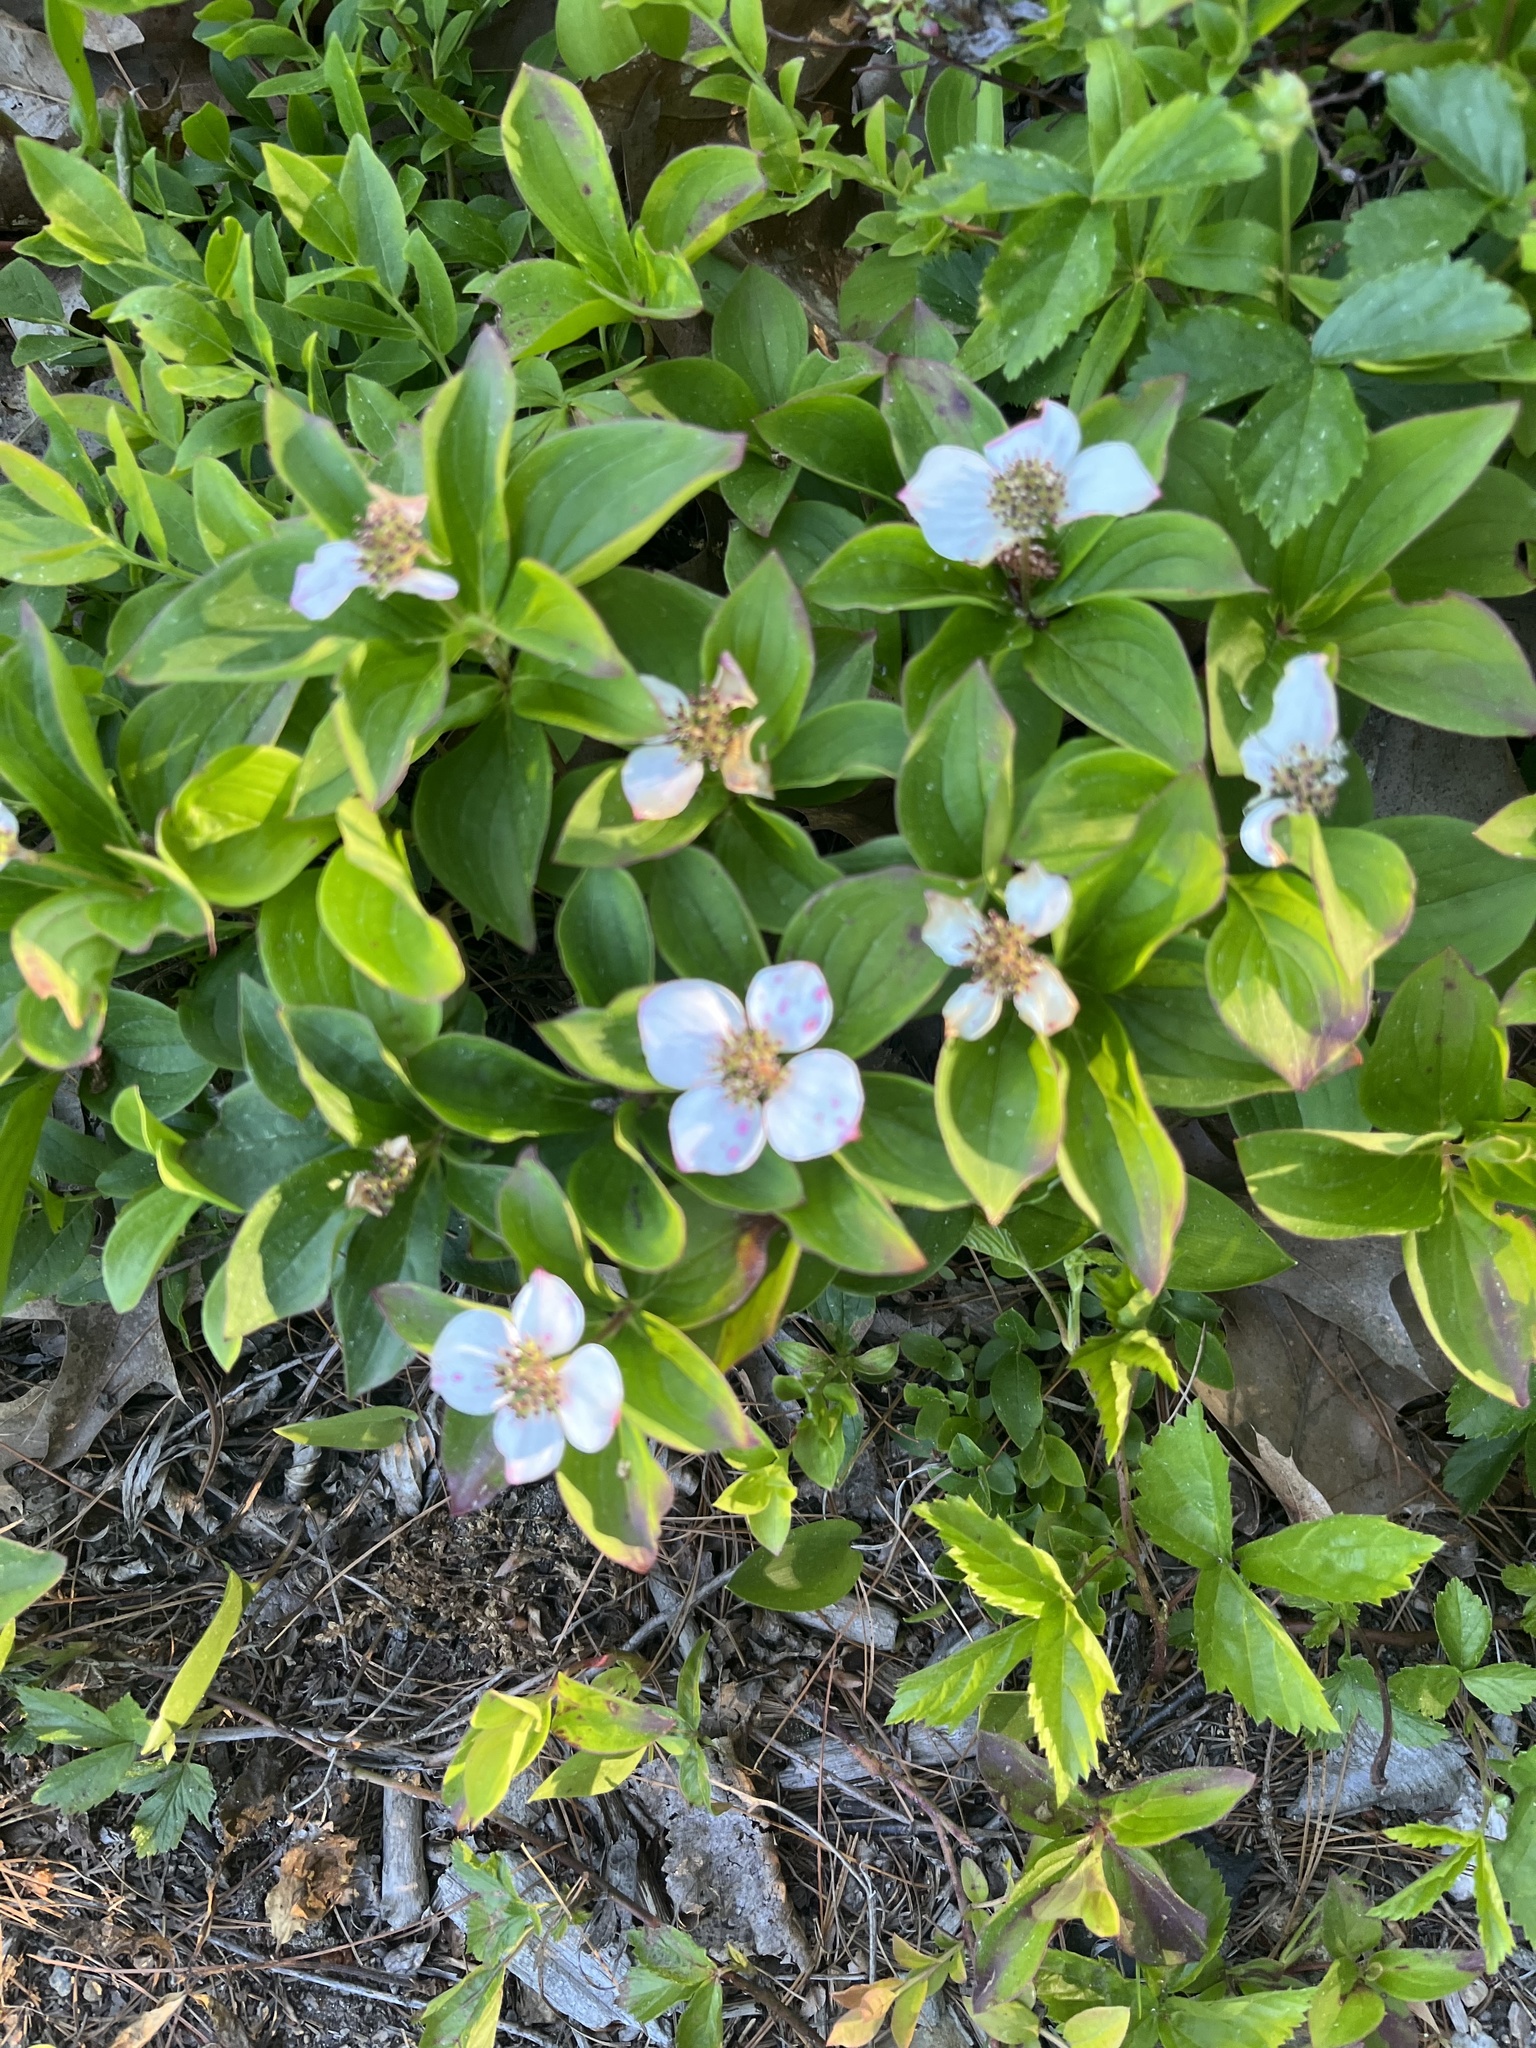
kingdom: Plantae
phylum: Tracheophyta
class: Magnoliopsida
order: Cornales
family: Cornaceae
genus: Cornus
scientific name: Cornus canadensis
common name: Creeping dogwood
